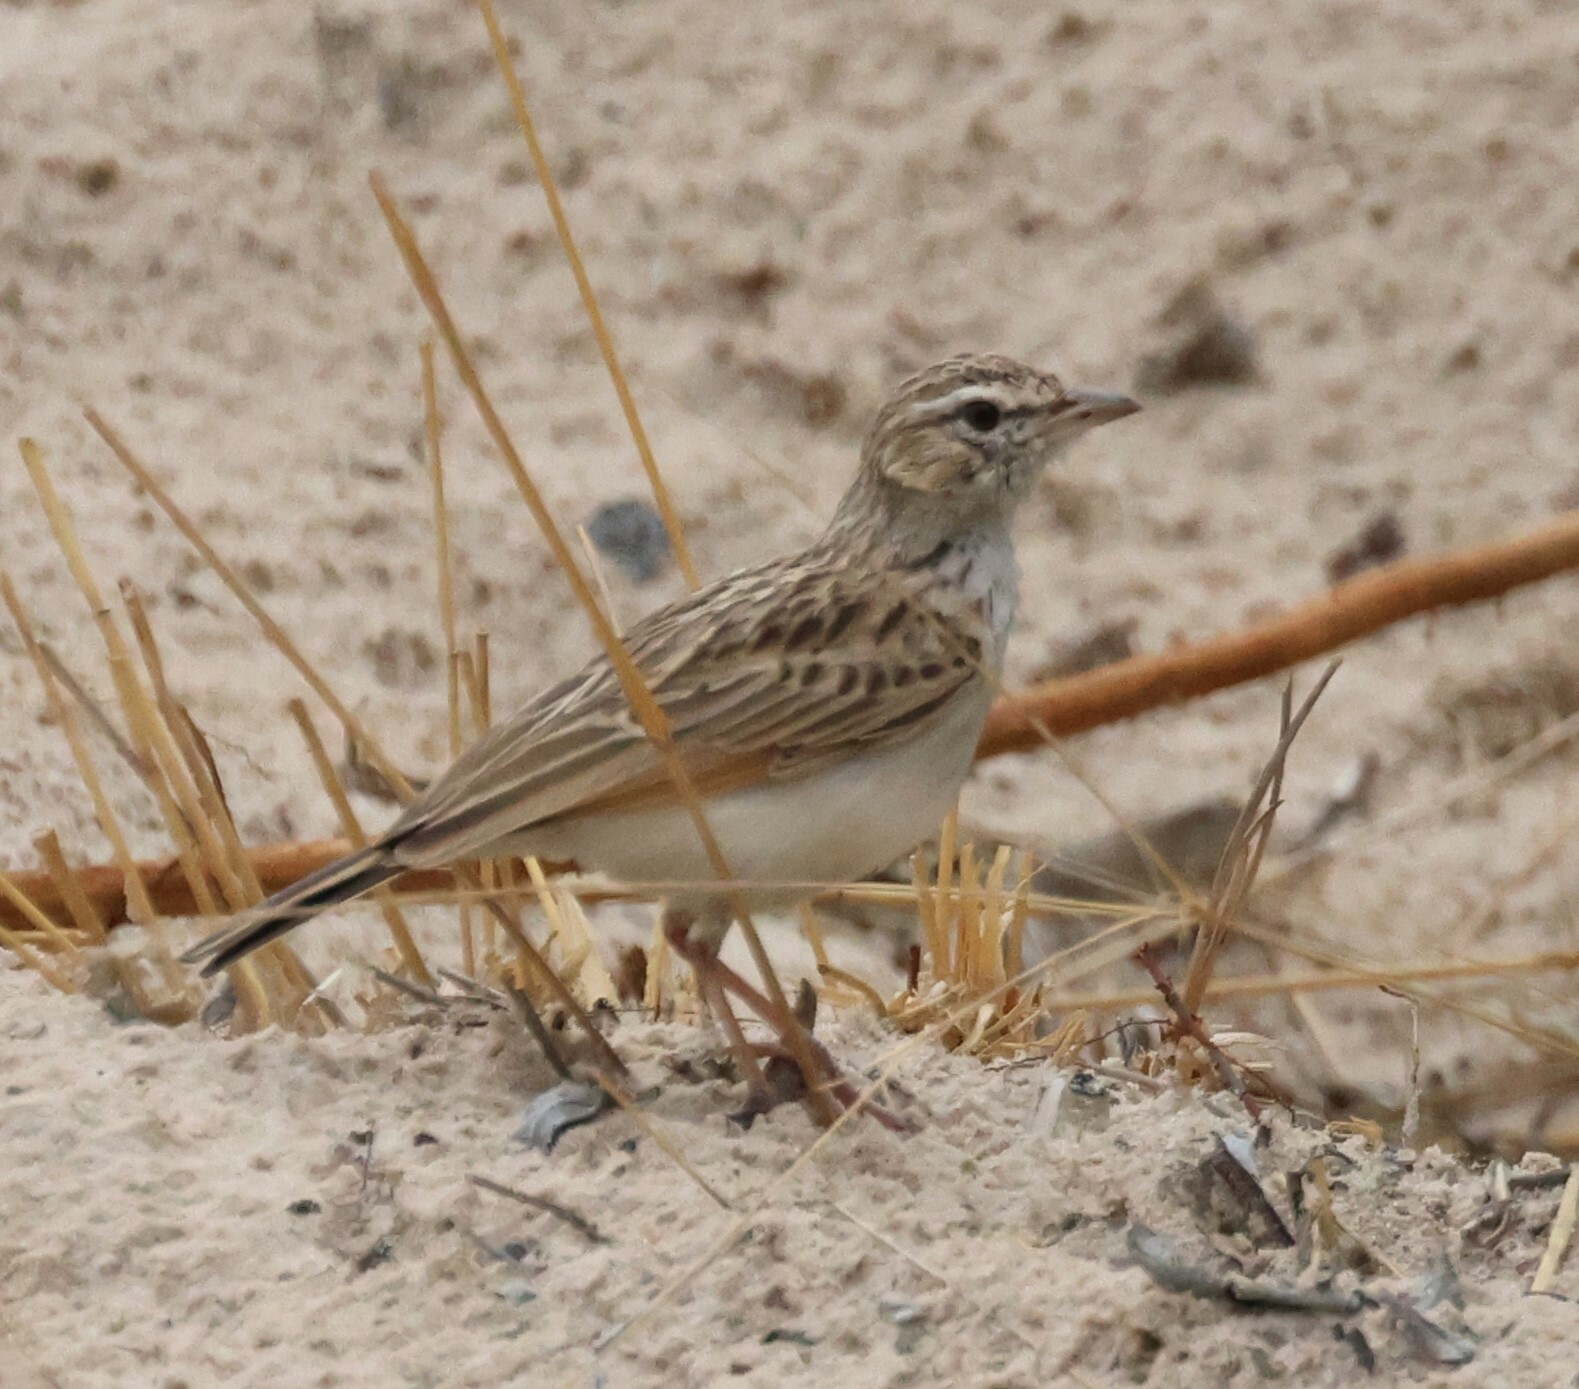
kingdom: Animalia
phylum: Chordata
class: Aves
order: Passeriformes
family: Alaudidae
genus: Calendulauda
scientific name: Calendulauda africanoides
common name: Fawn-colored lark
